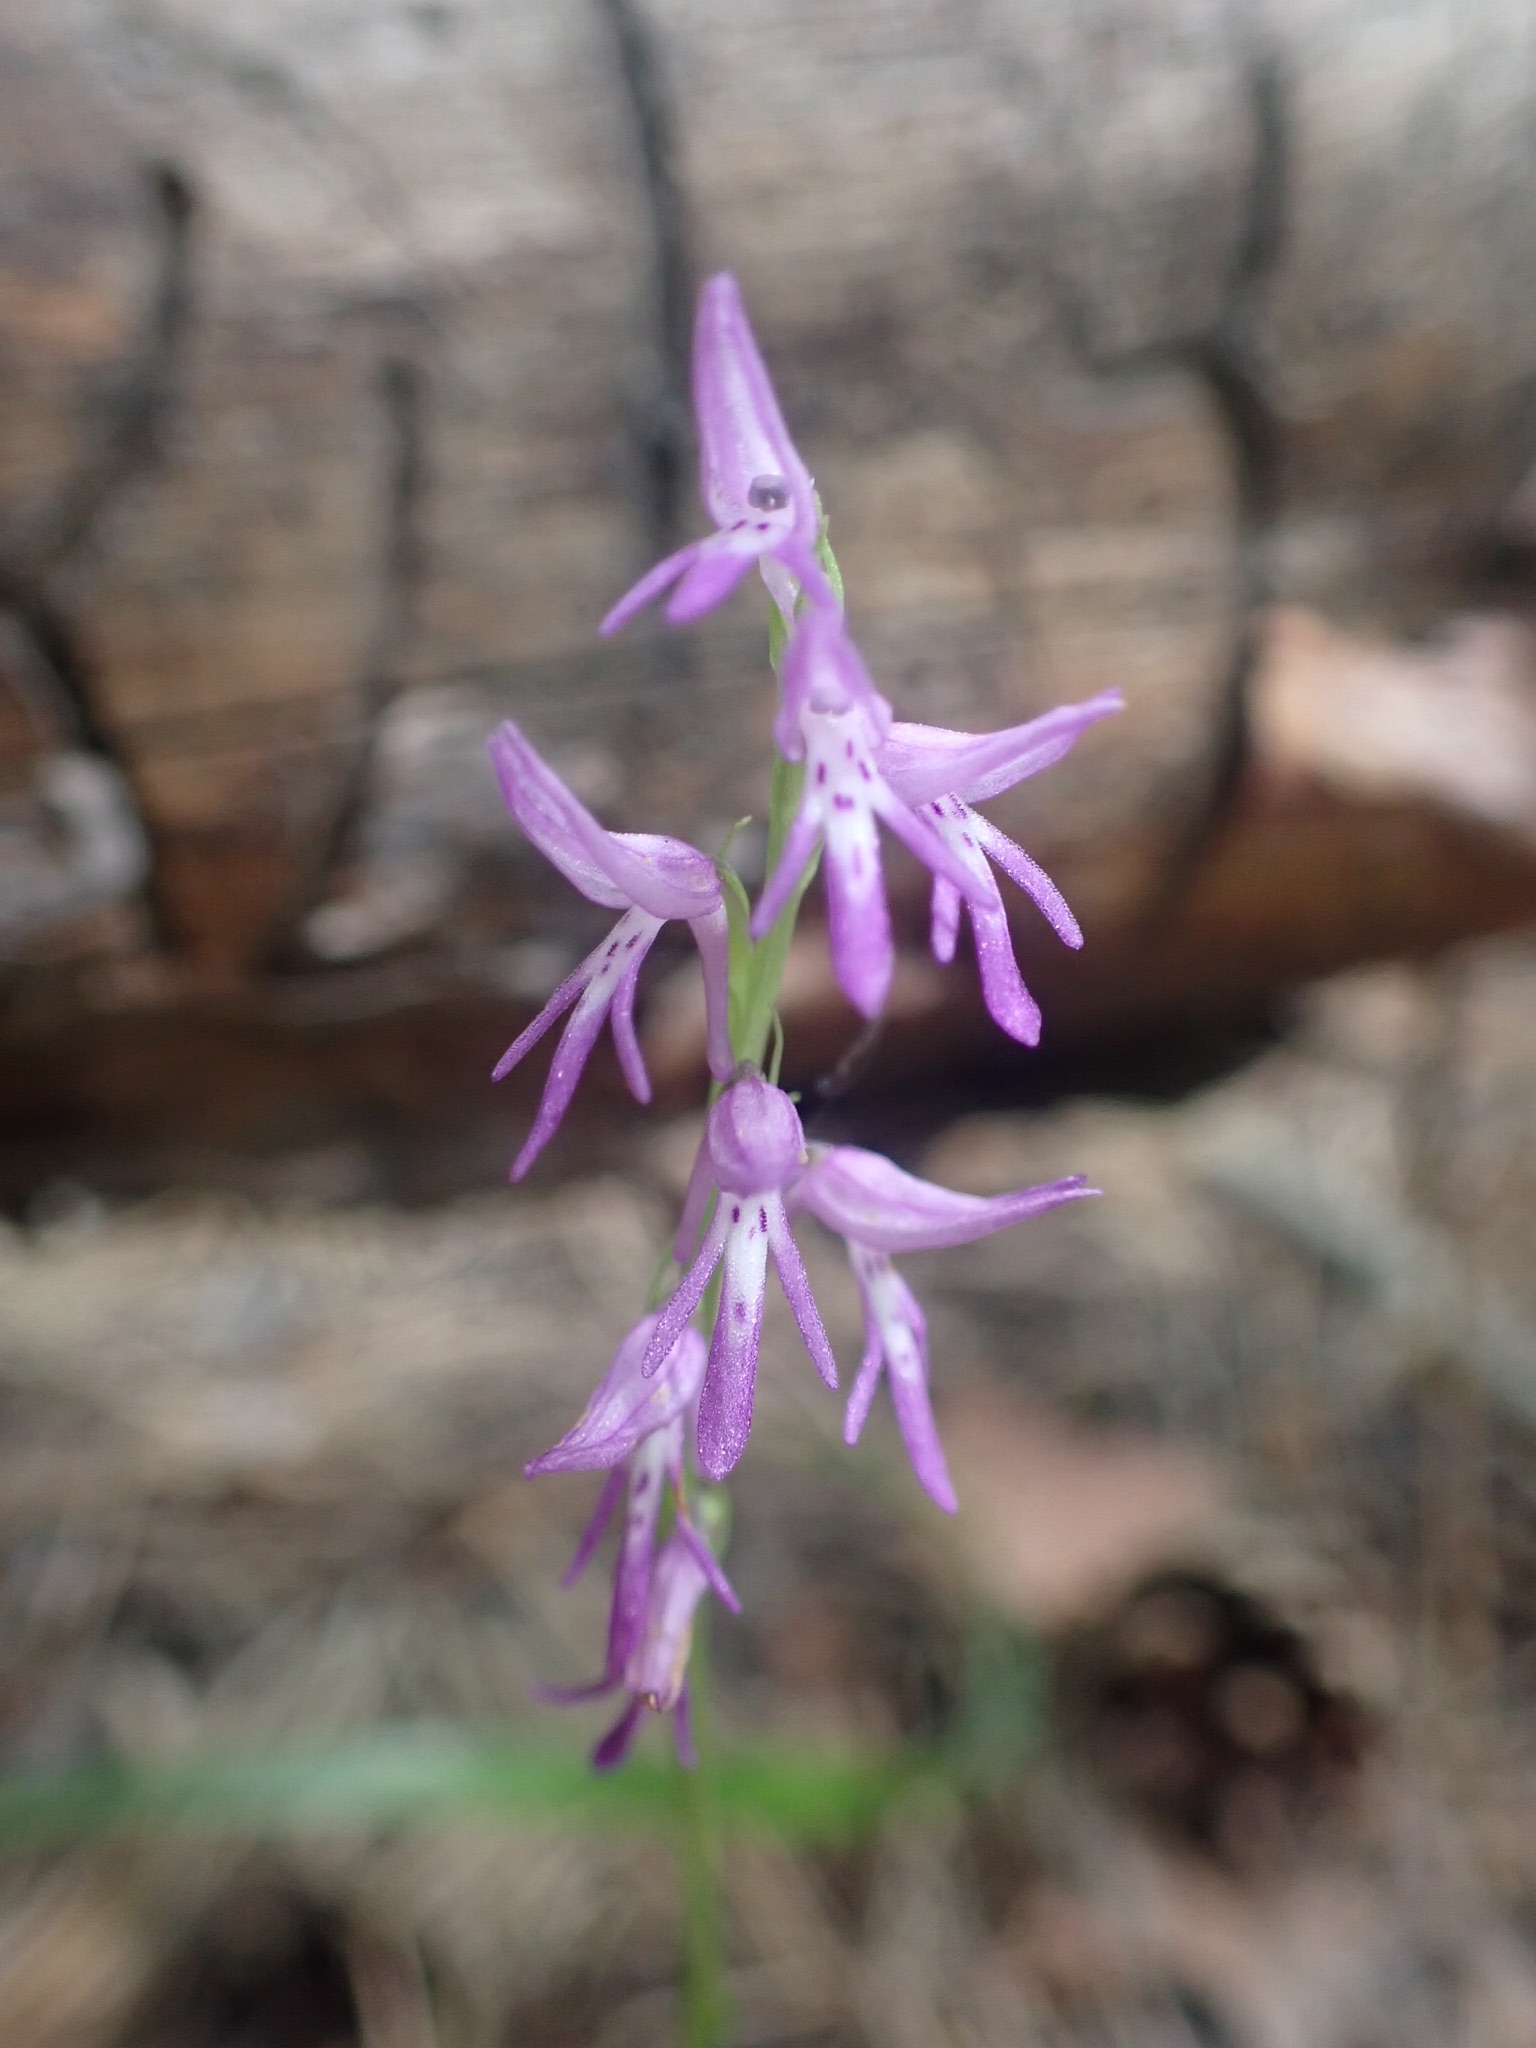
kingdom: Plantae
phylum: Tracheophyta
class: Liliopsida
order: Asparagales
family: Orchidaceae
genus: Hemipilia
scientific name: Hemipilia cucullata
